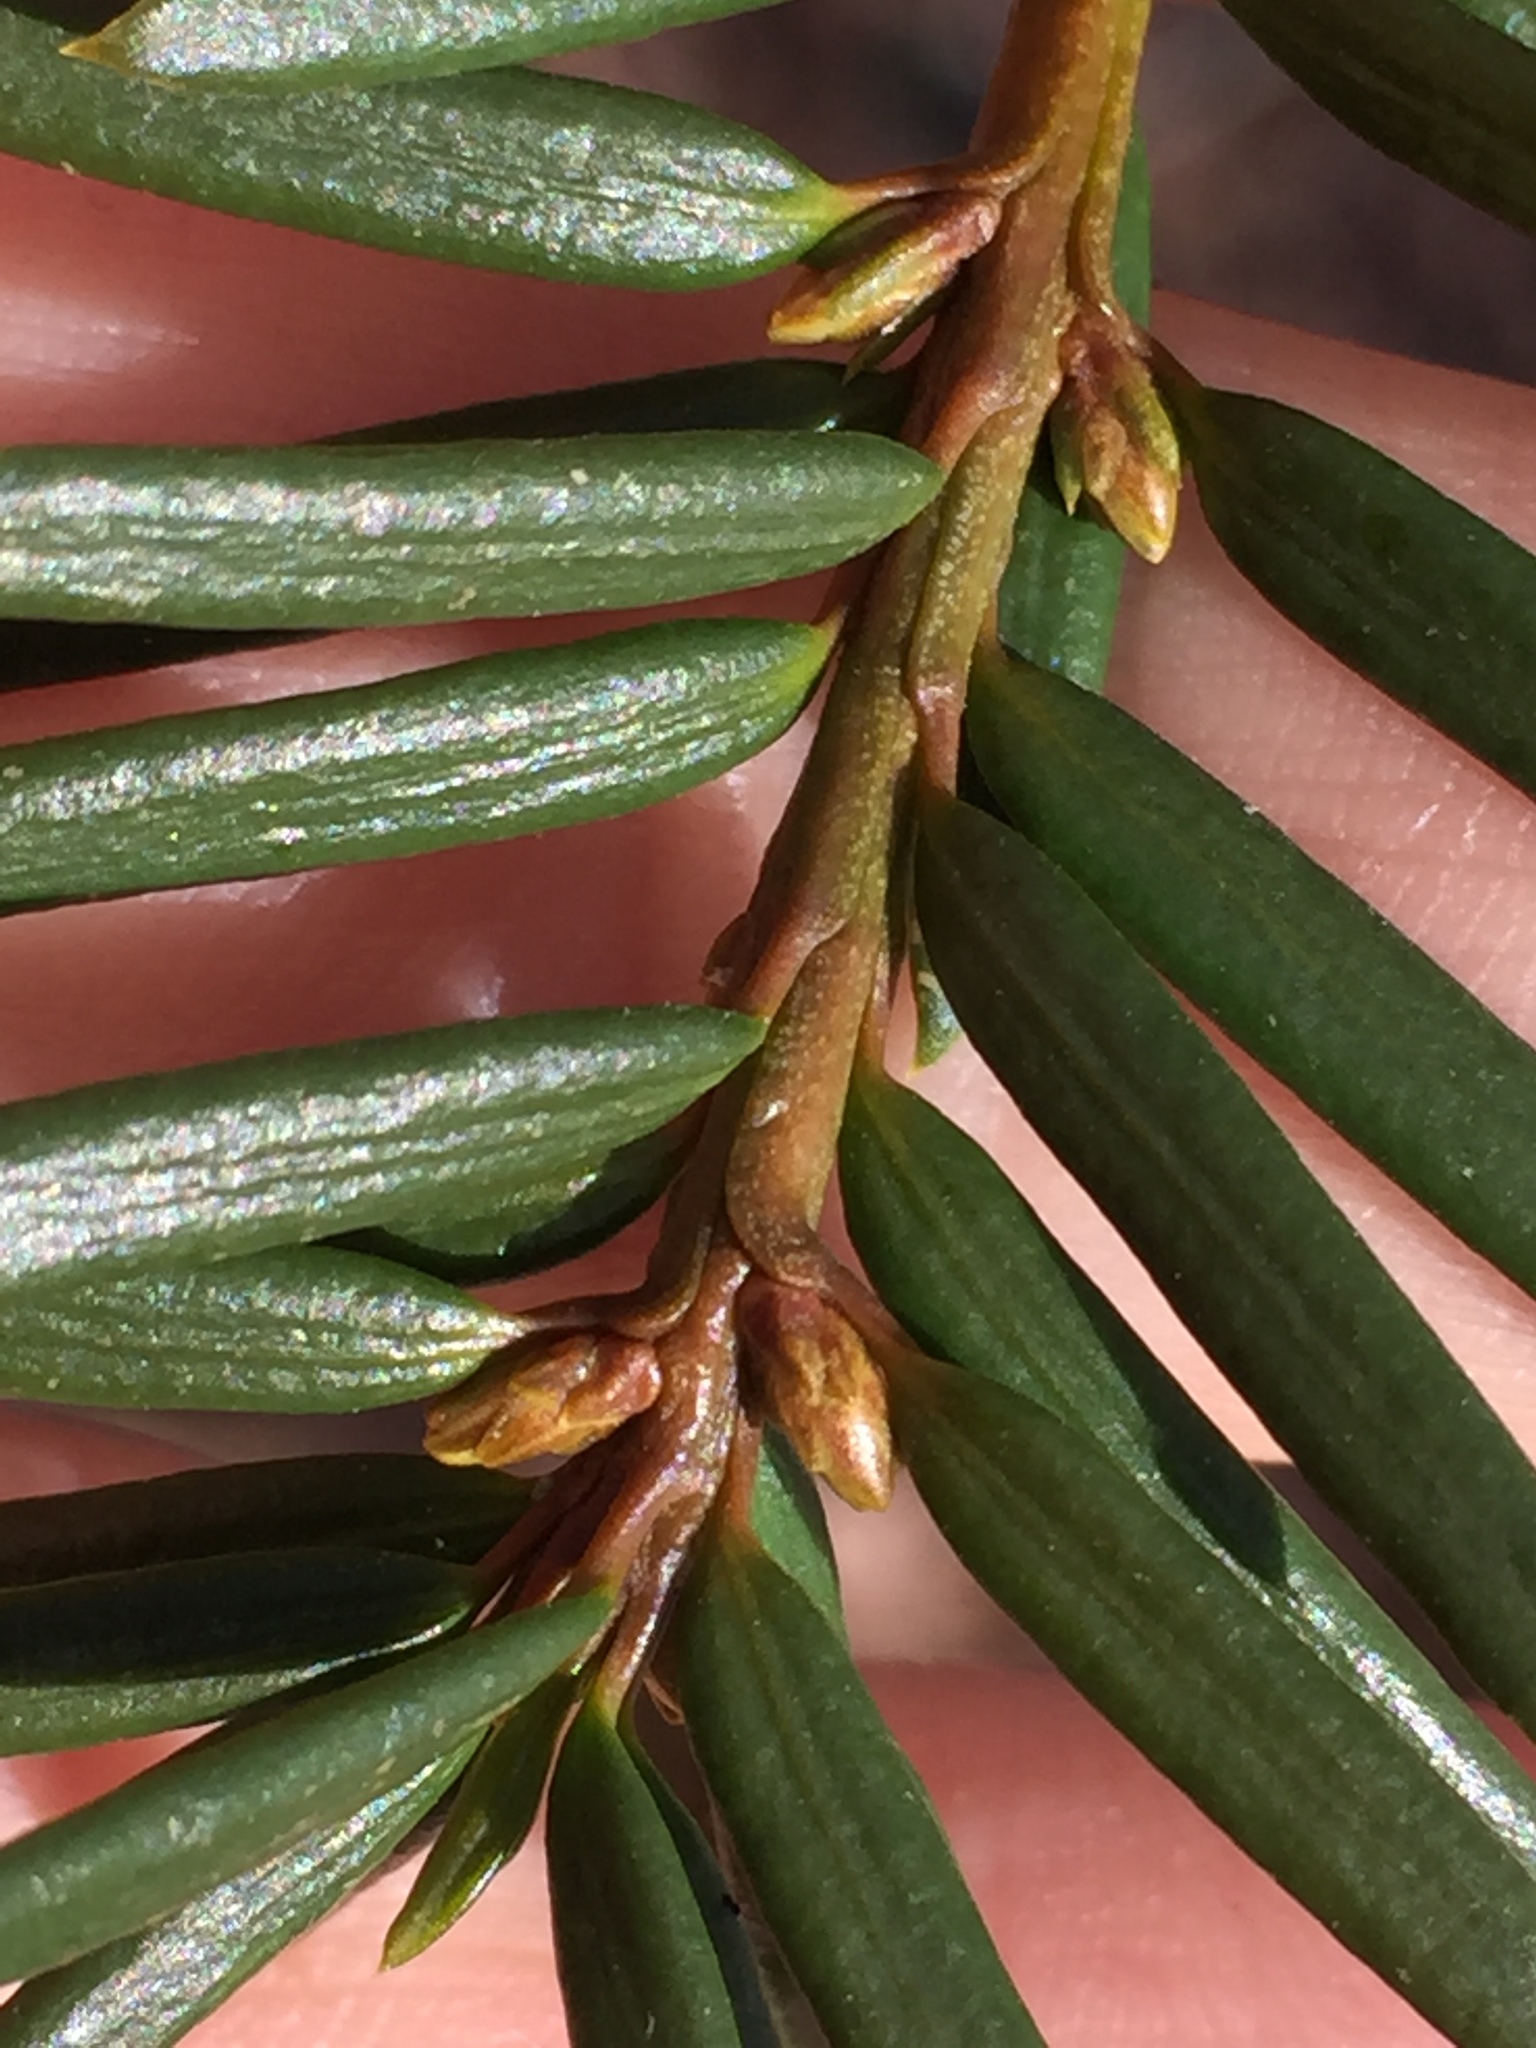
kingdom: Plantae
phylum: Tracheophyta
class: Pinopsida
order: Pinales
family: Taxaceae
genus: Taxus
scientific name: Taxus cuspidata
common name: Japanese yew
